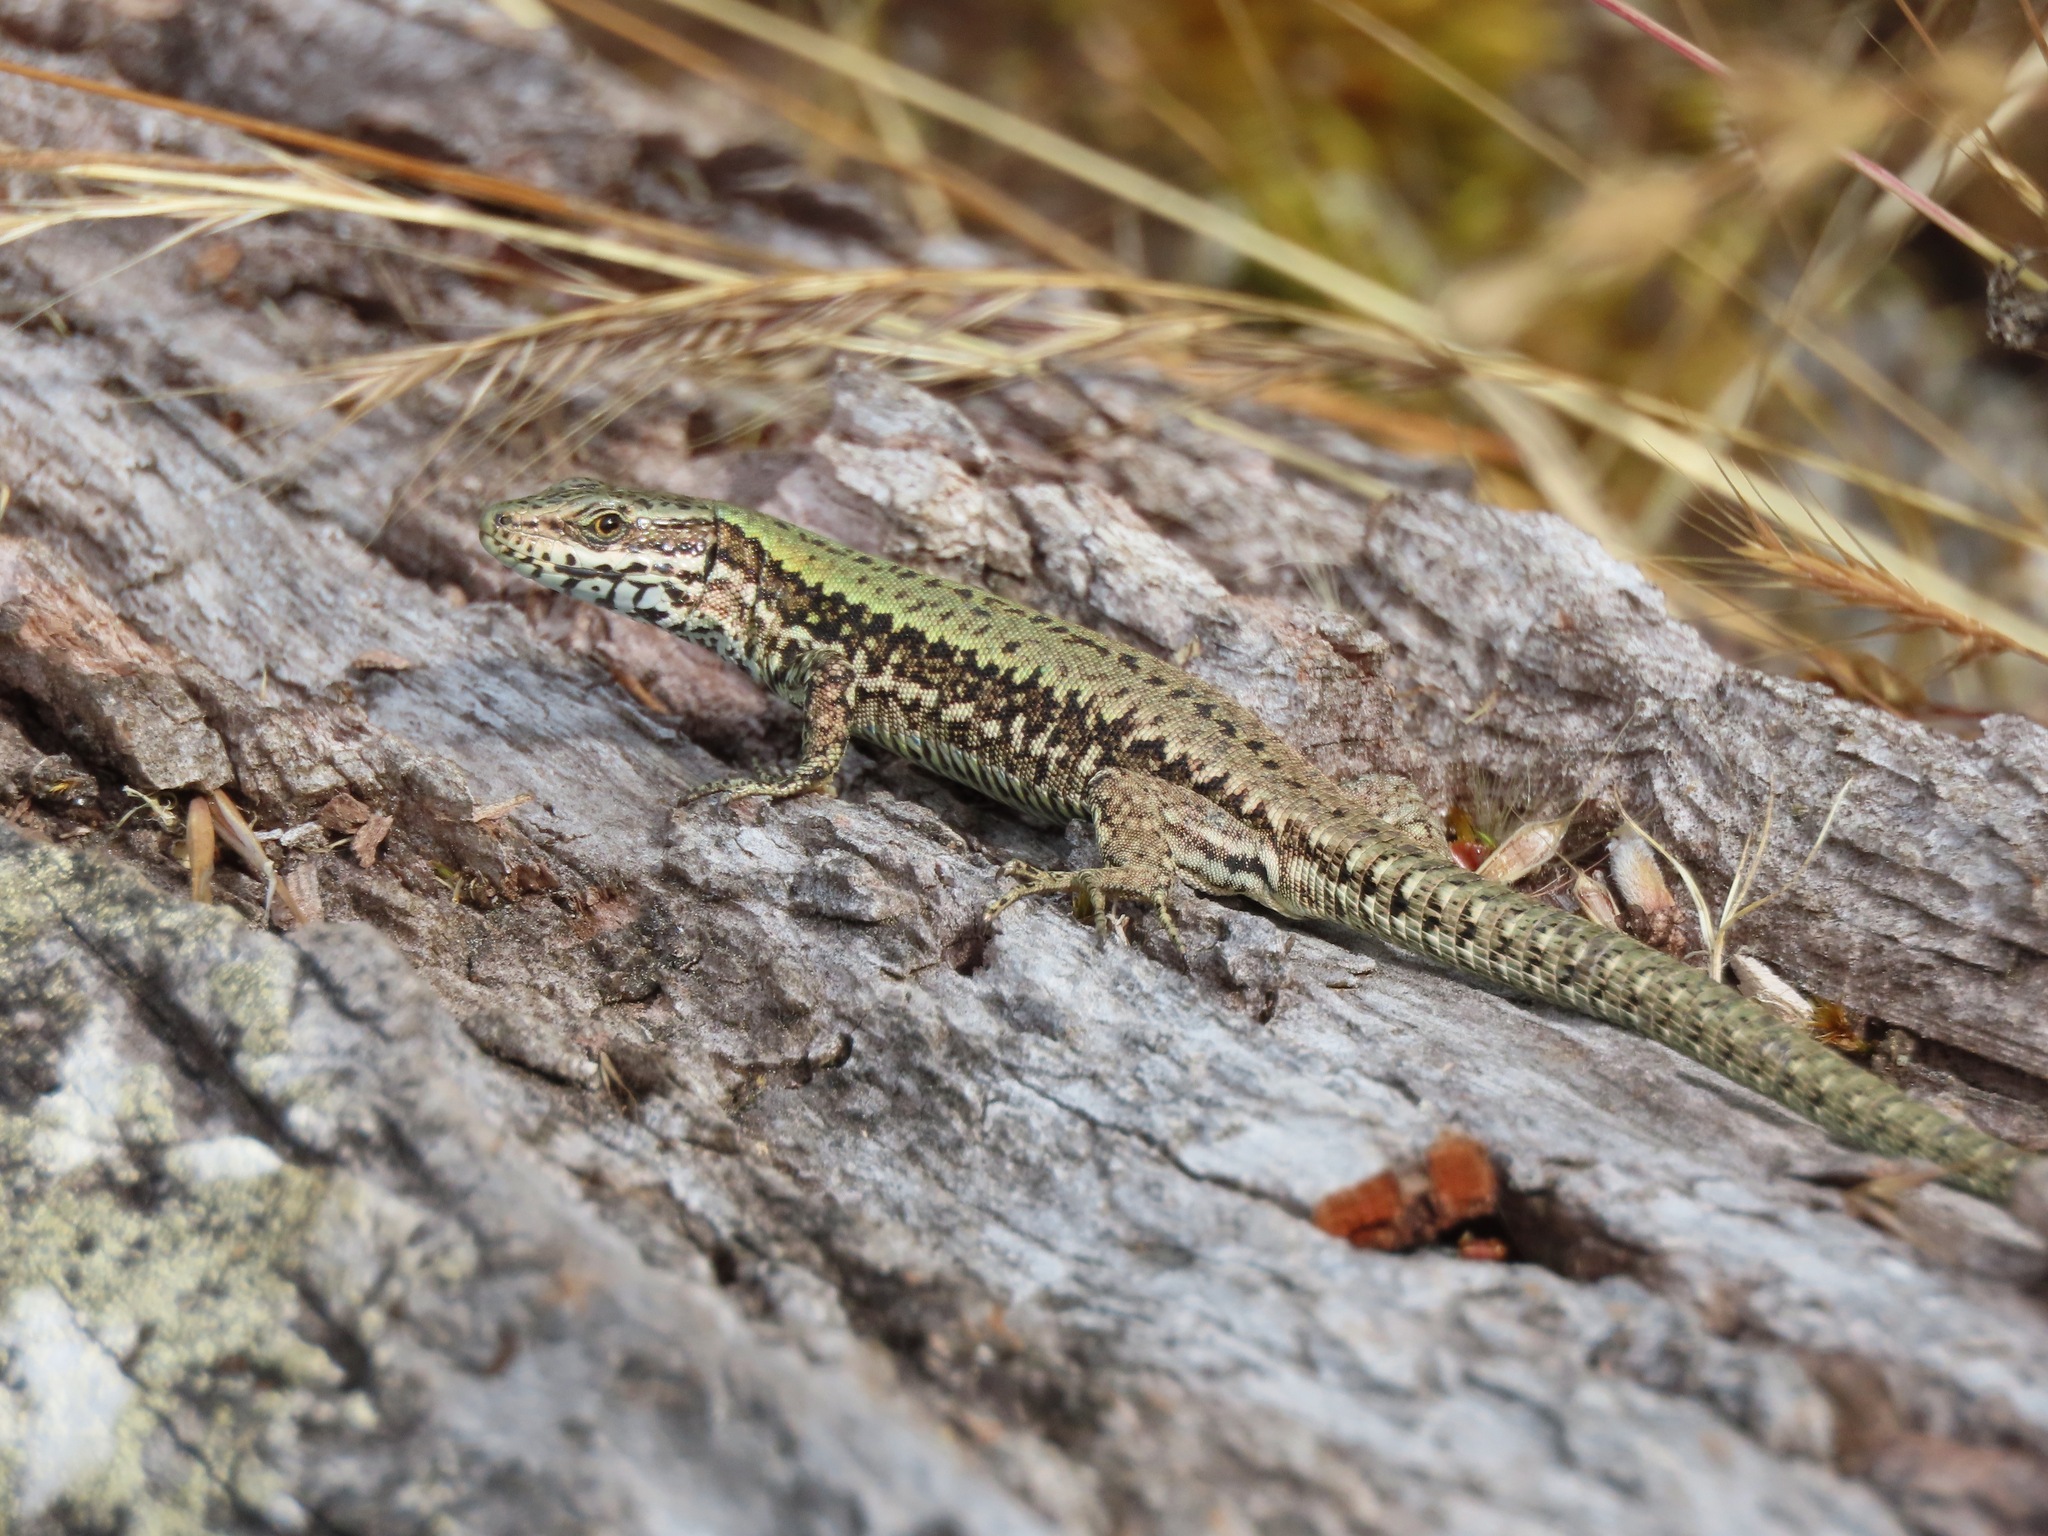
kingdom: Animalia
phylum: Chordata
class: Squamata
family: Lacertidae
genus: Podarcis
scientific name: Podarcis muralis
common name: Common wall lizard
